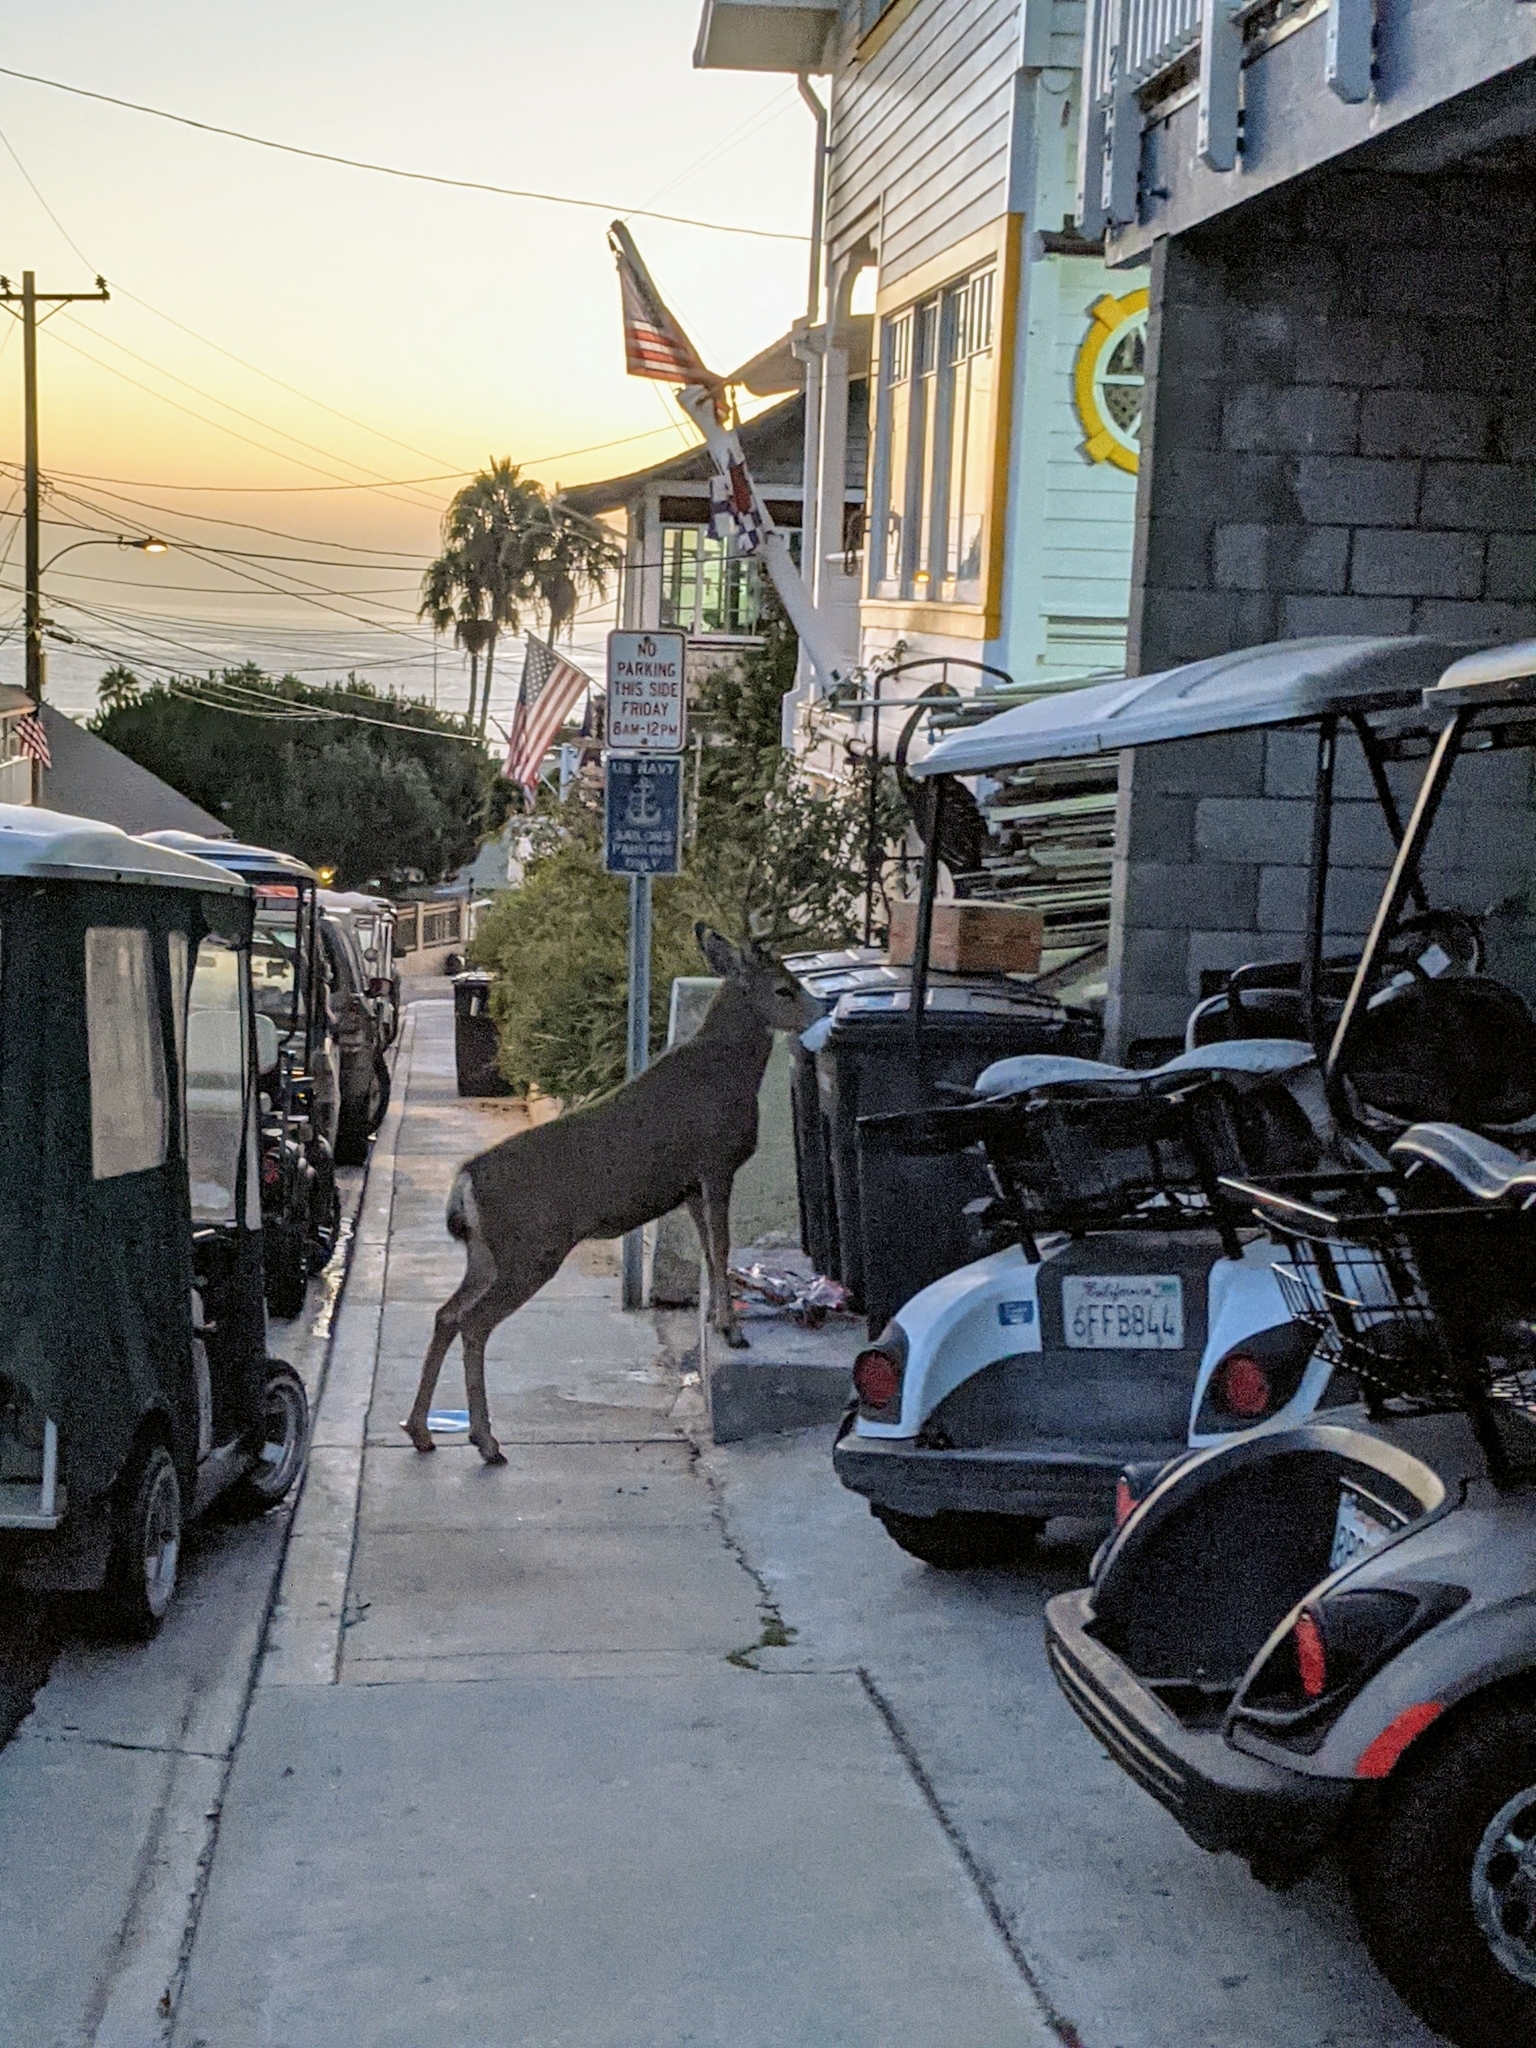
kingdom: Animalia
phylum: Chordata
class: Mammalia
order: Artiodactyla
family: Cervidae
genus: Odocoileus
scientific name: Odocoileus hemionus
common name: Mule deer
